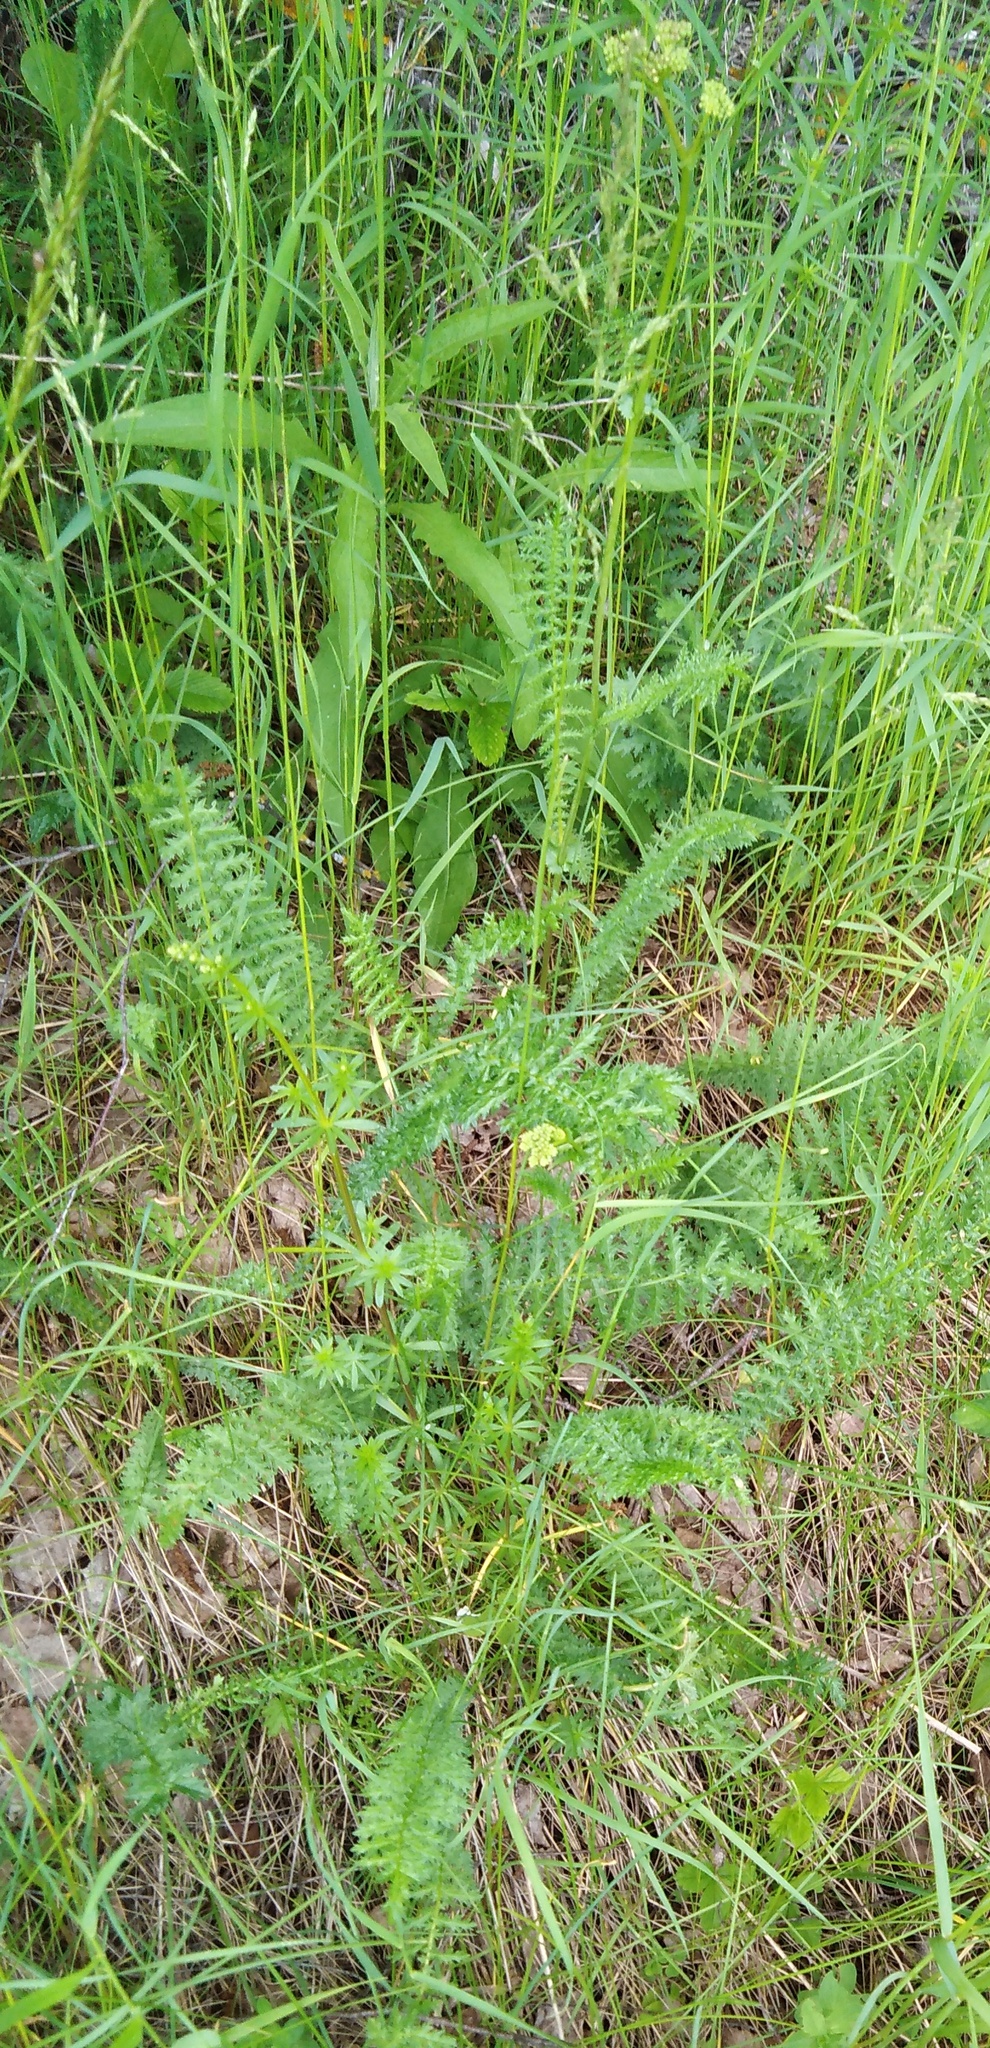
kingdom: Plantae
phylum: Tracheophyta
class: Magnoliopsida
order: Rosales
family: Rosaceae
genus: Filipendula
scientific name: Filipendula vulgaris
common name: Dropwort
